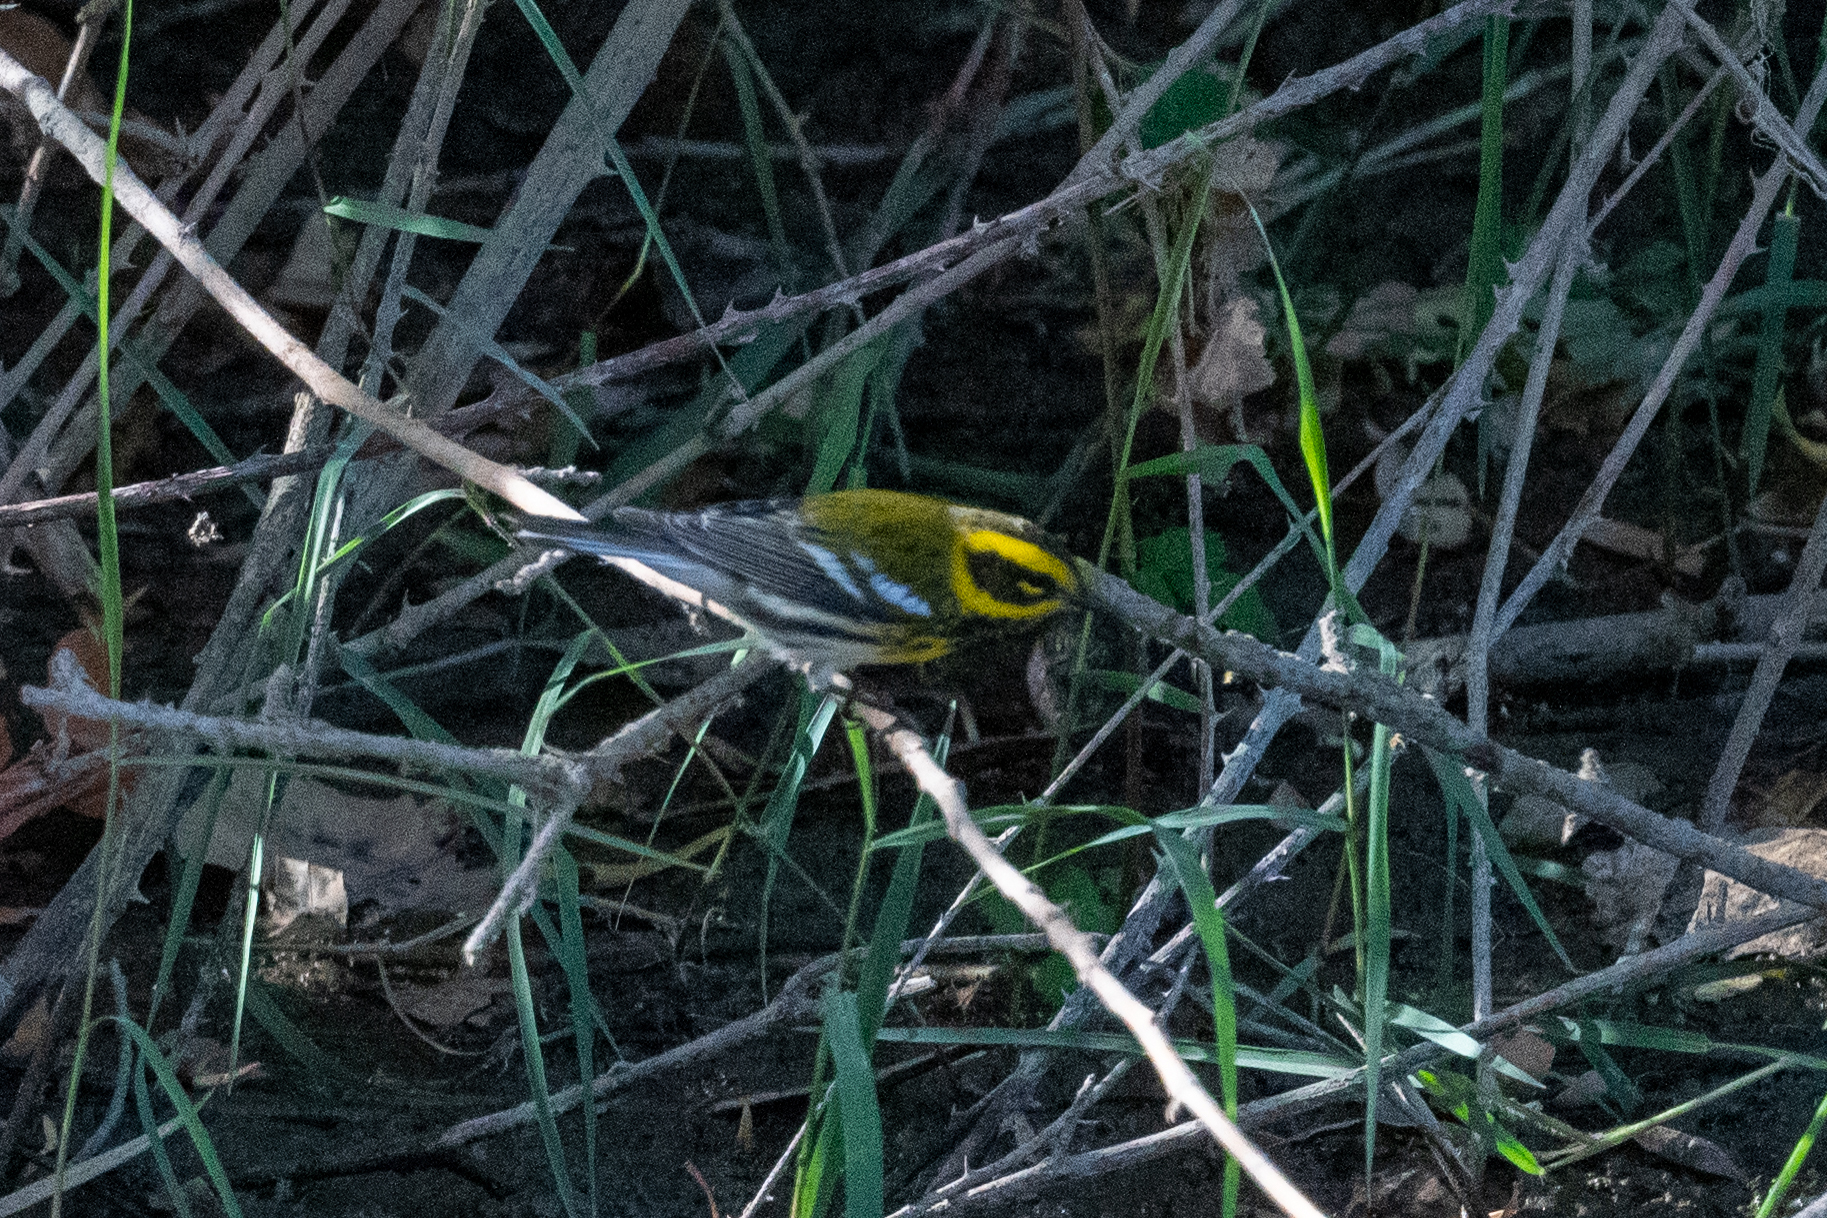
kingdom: Animalia
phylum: Chordata
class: Aves
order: Passeriformes
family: Parulidae
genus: Setophaga
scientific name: Setophaga townsendi
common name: Townsend's warbler
